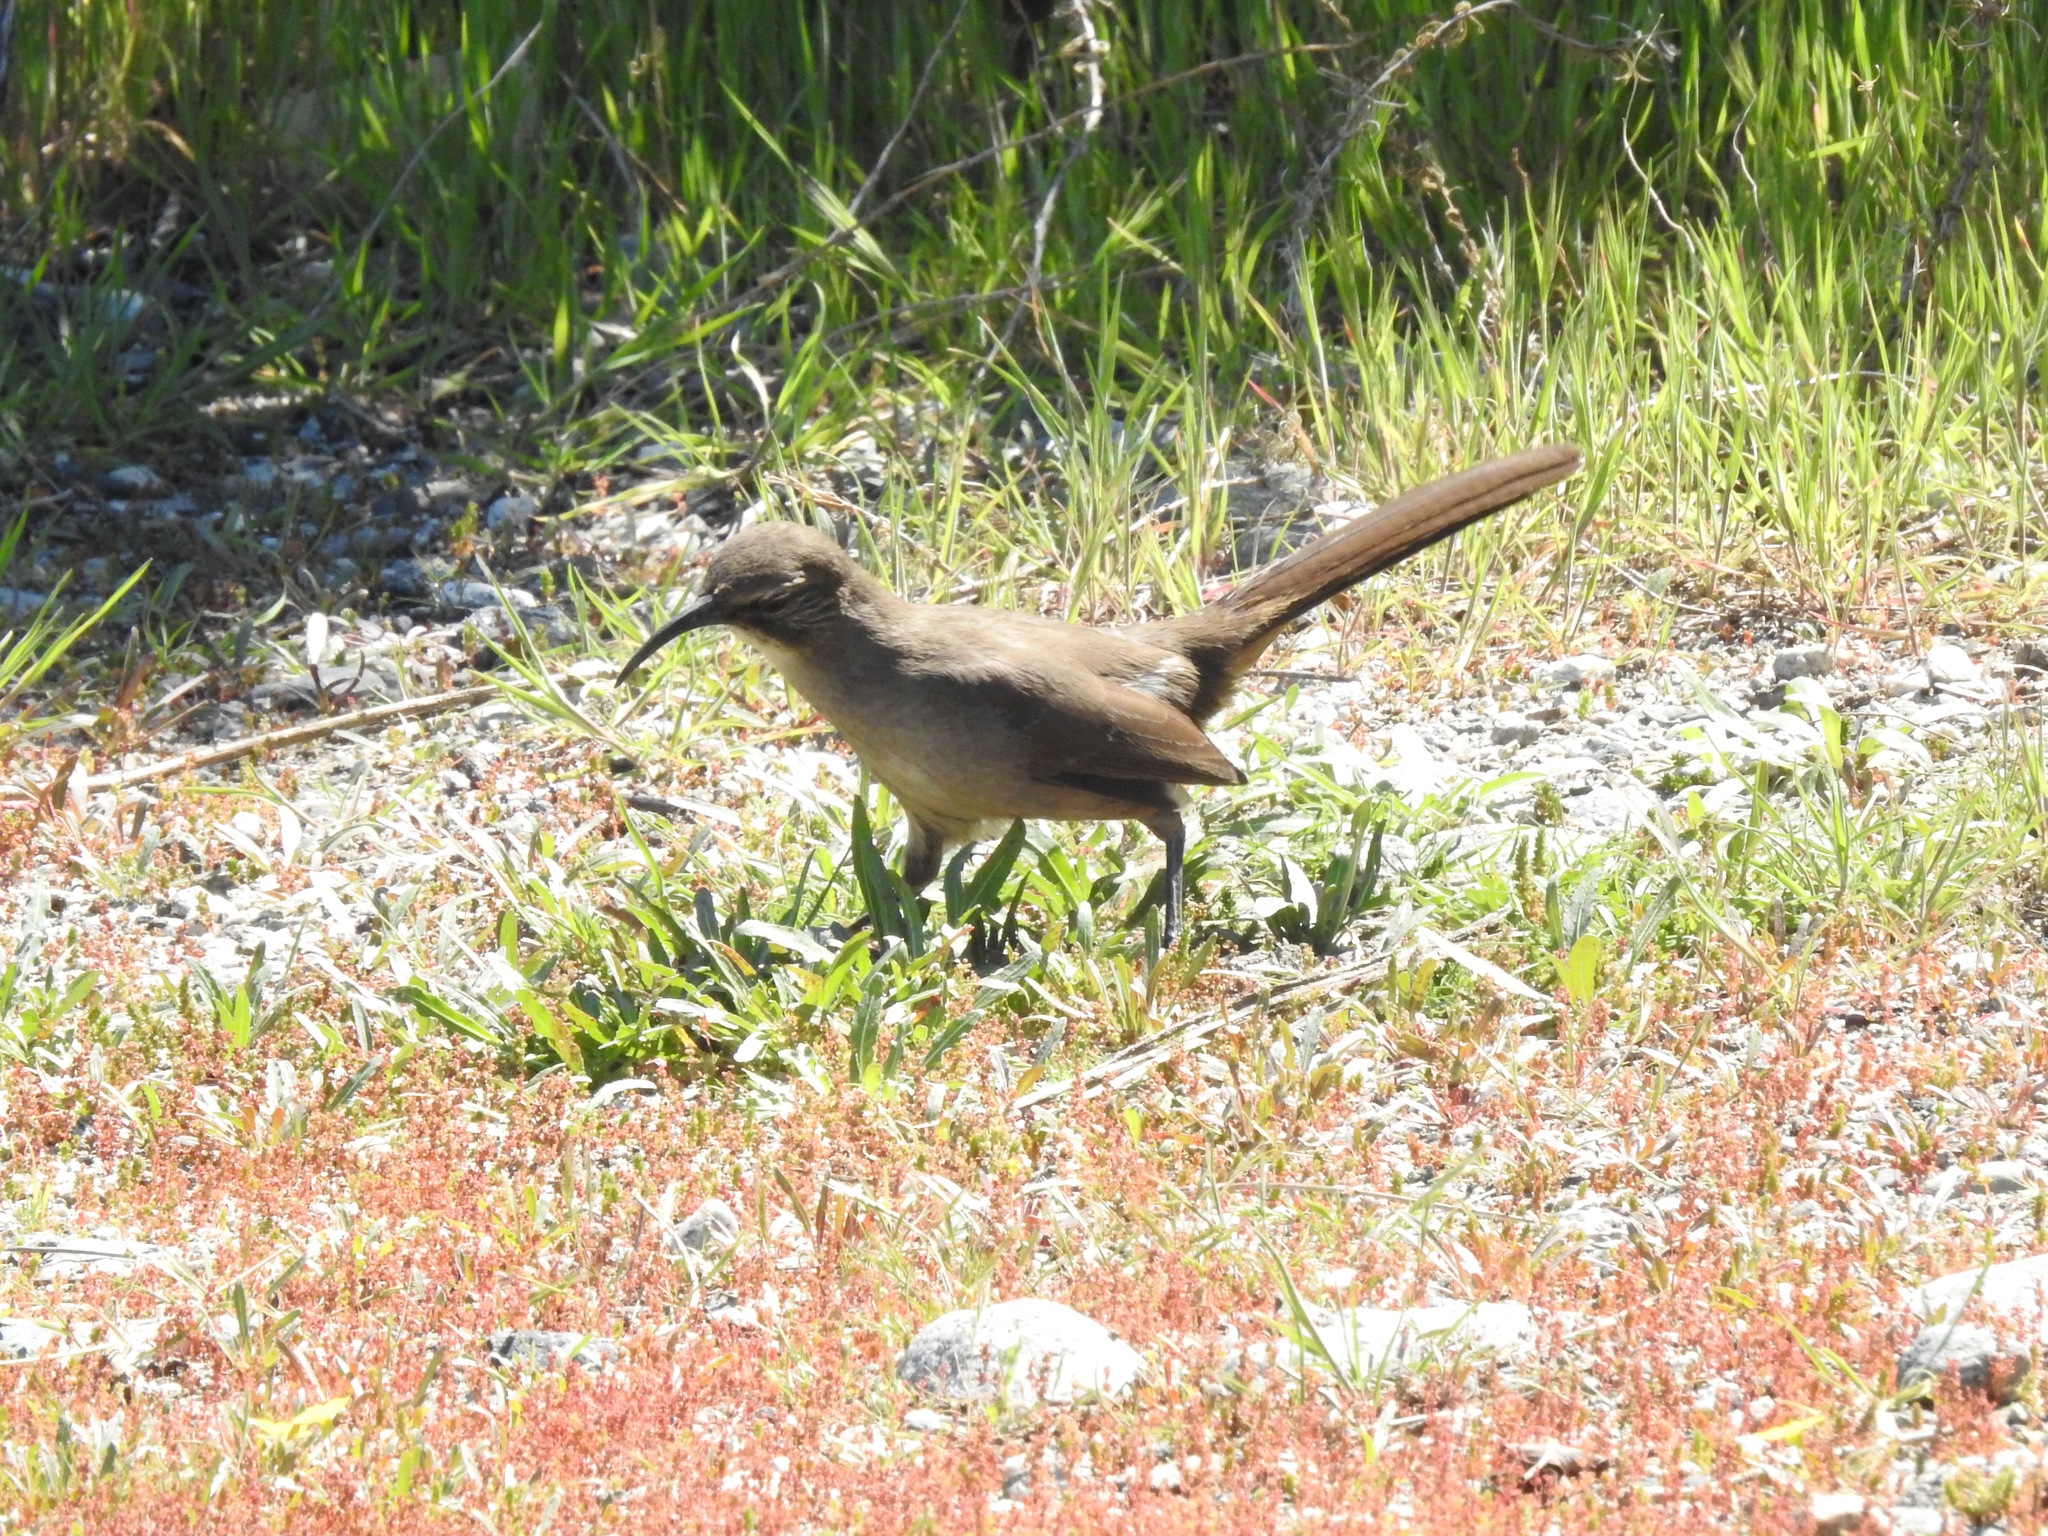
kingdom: Animalia
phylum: Chordata
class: Aves
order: Passeriformes
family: Mimidae
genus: Toxostoma
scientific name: Toxostoma redivivum
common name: California thrasher
